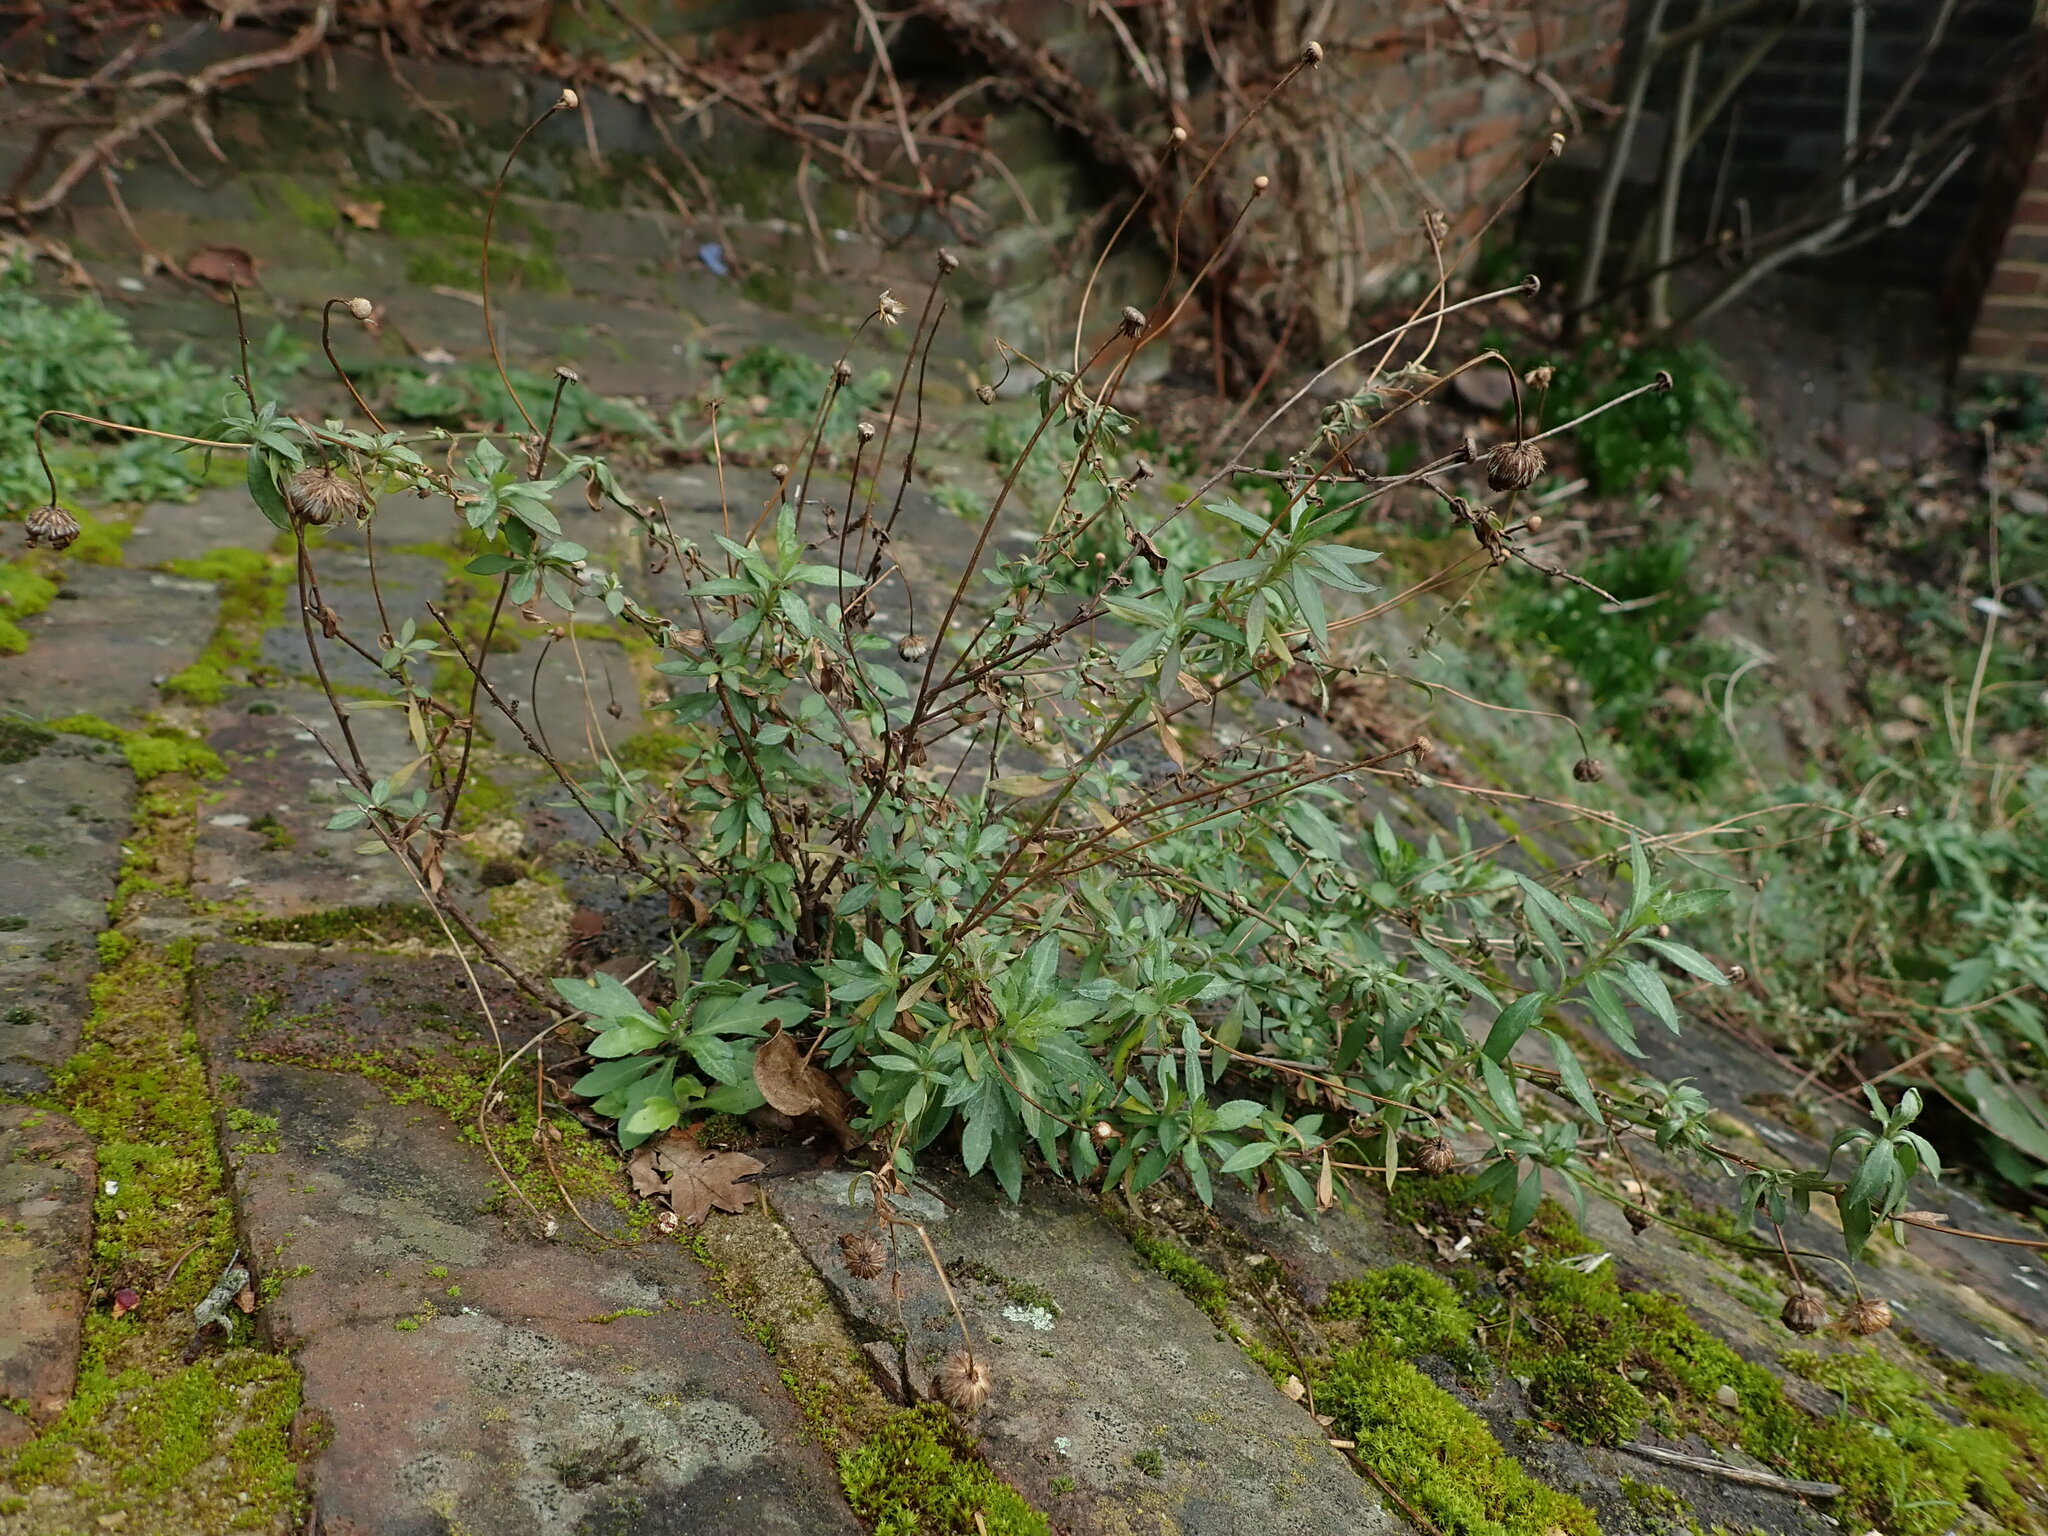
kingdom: Plantae
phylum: Tracheophyta
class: Magnoliopsida
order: Asterales
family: Asteraceae
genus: Erigeron
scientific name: Erigeron karvinskianus
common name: Mexican fleabane
